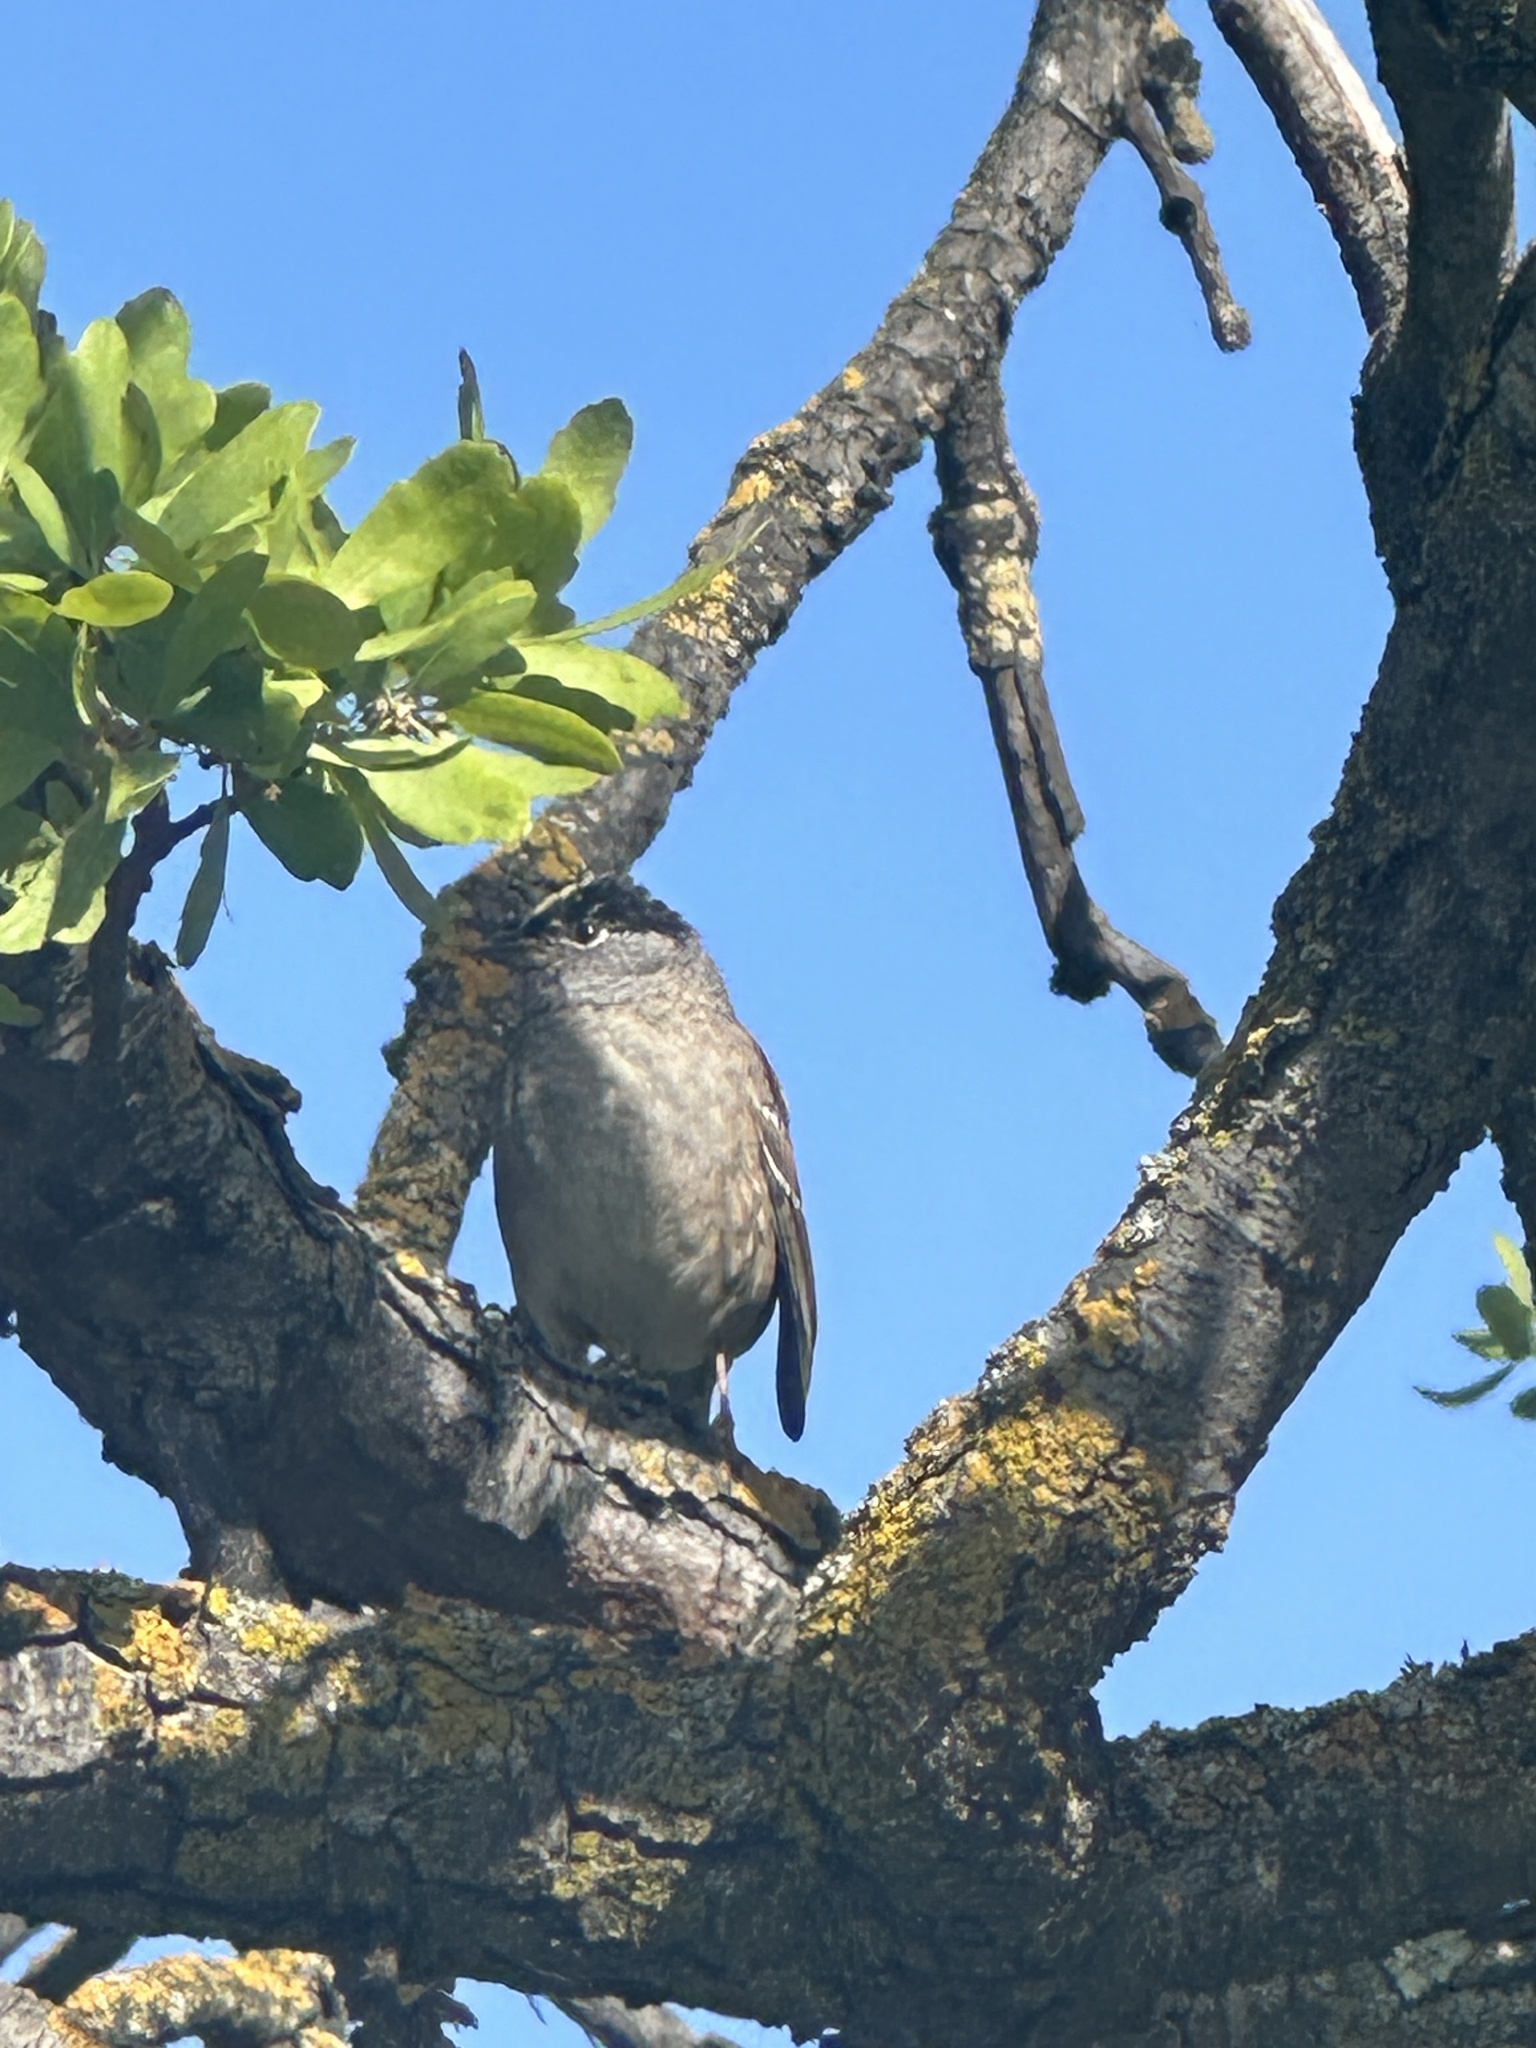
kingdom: Animalia
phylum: Chordata
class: Aves
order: Passeriformes
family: Passerellidae
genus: Zonotrichia
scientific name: Zonotrichia atricapilla
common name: Golden-crowned sparrow
